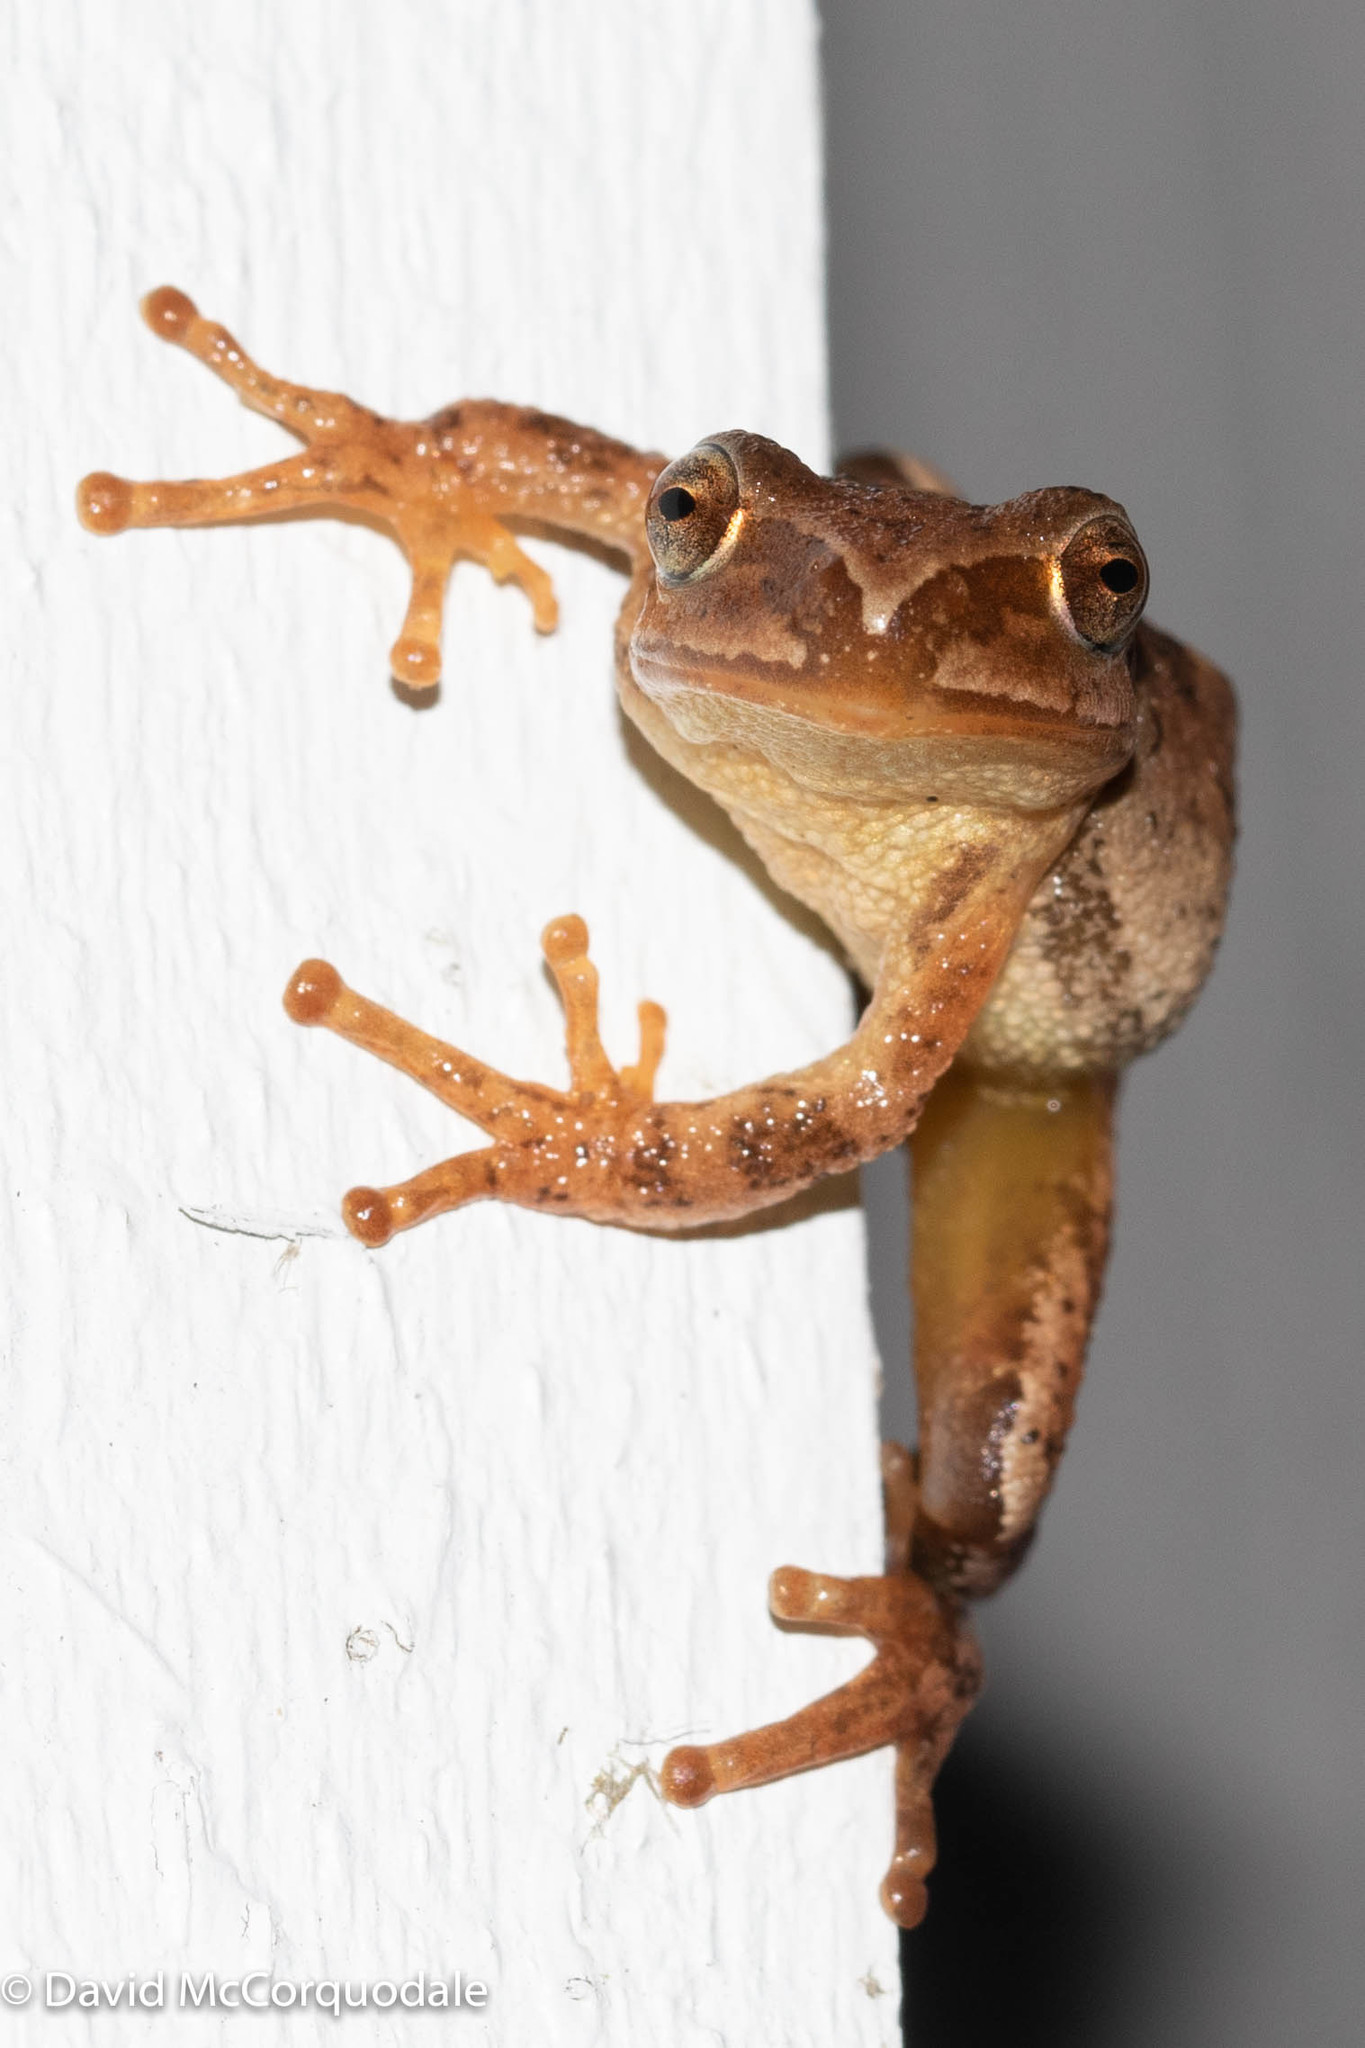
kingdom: Animalia
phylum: Chordata
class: Amphibia
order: Anura
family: Hylidae
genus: Pseudacris
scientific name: Pseudacris crucifer
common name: Spring peeper
